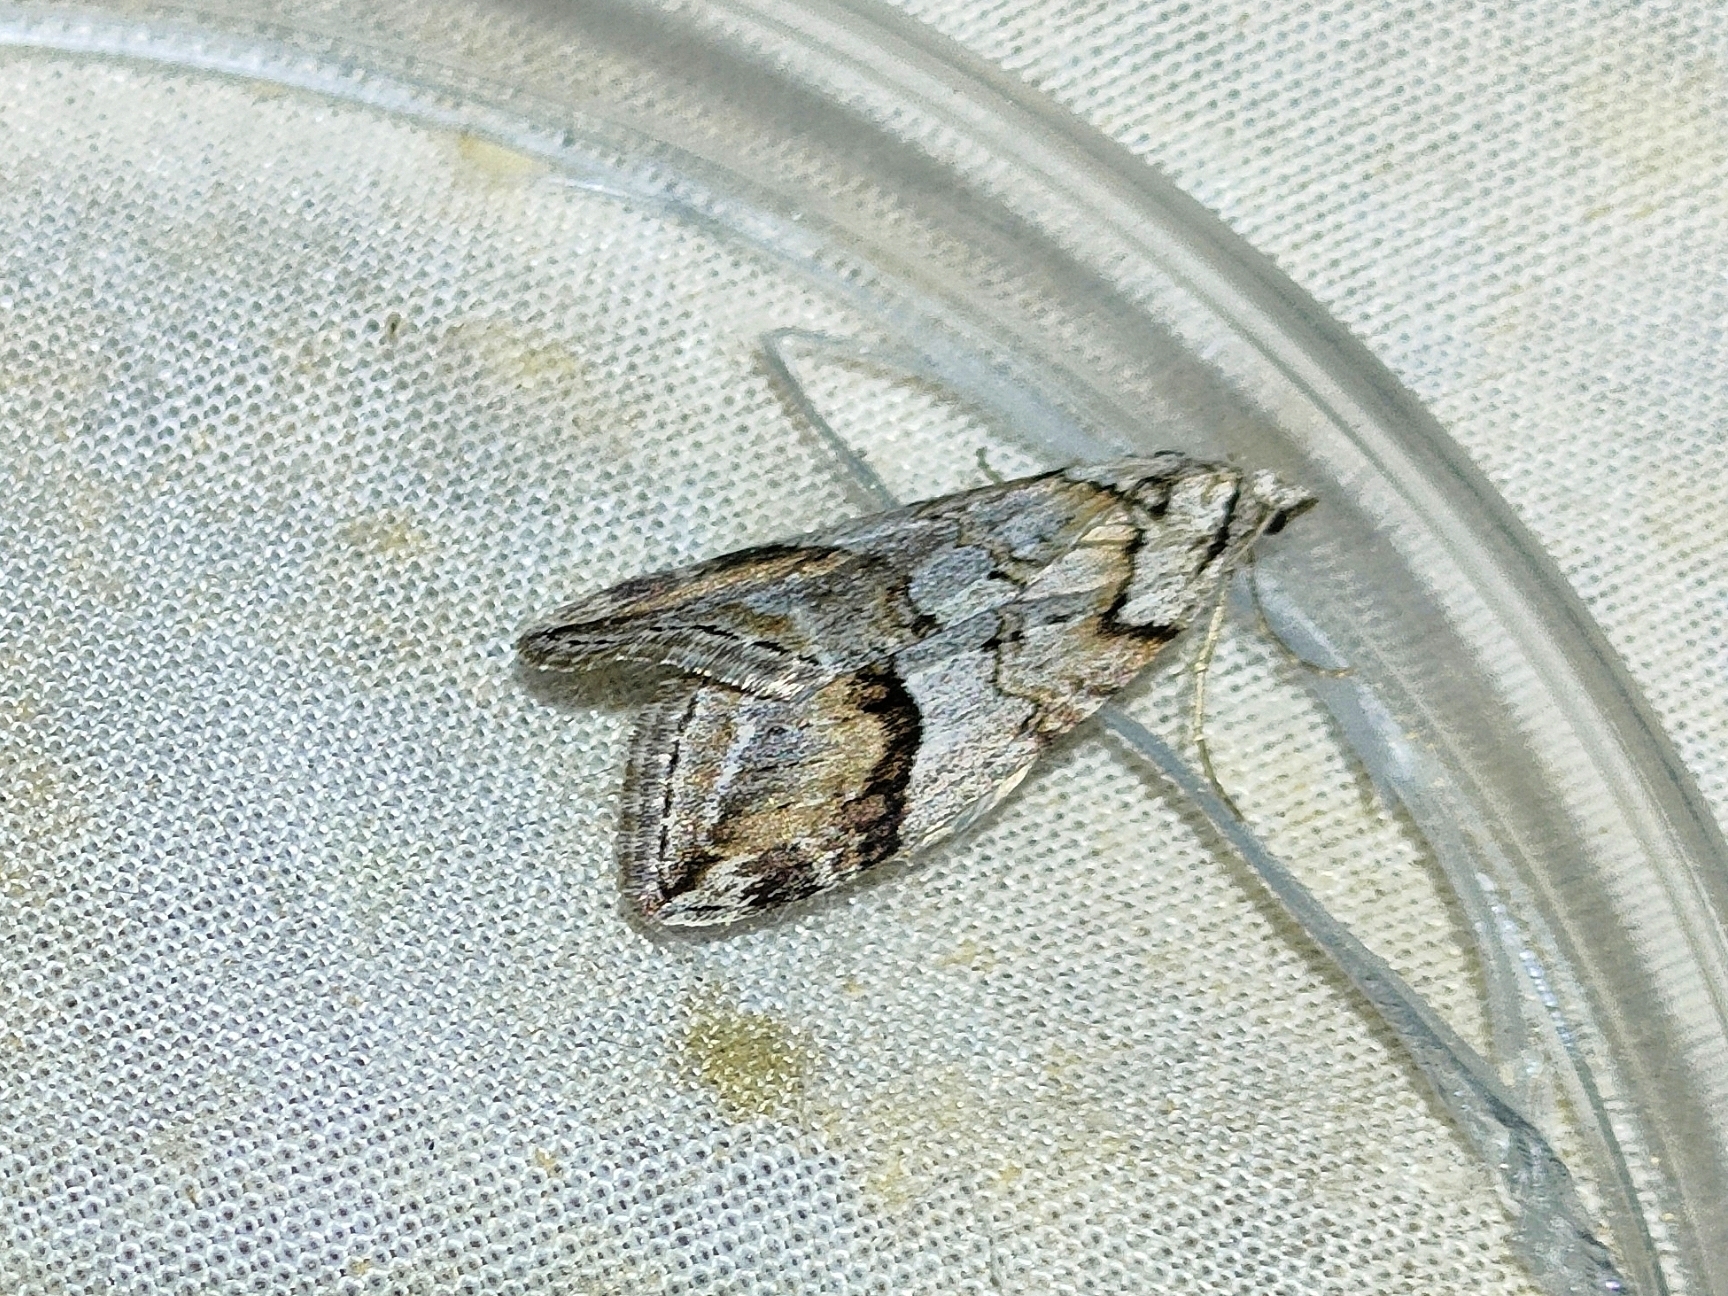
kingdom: Animalia
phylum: Arthropoda
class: Insecta
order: Lepidoptera
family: Geometridae
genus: Chesias
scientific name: Chesias rufata
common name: Broom-tip
